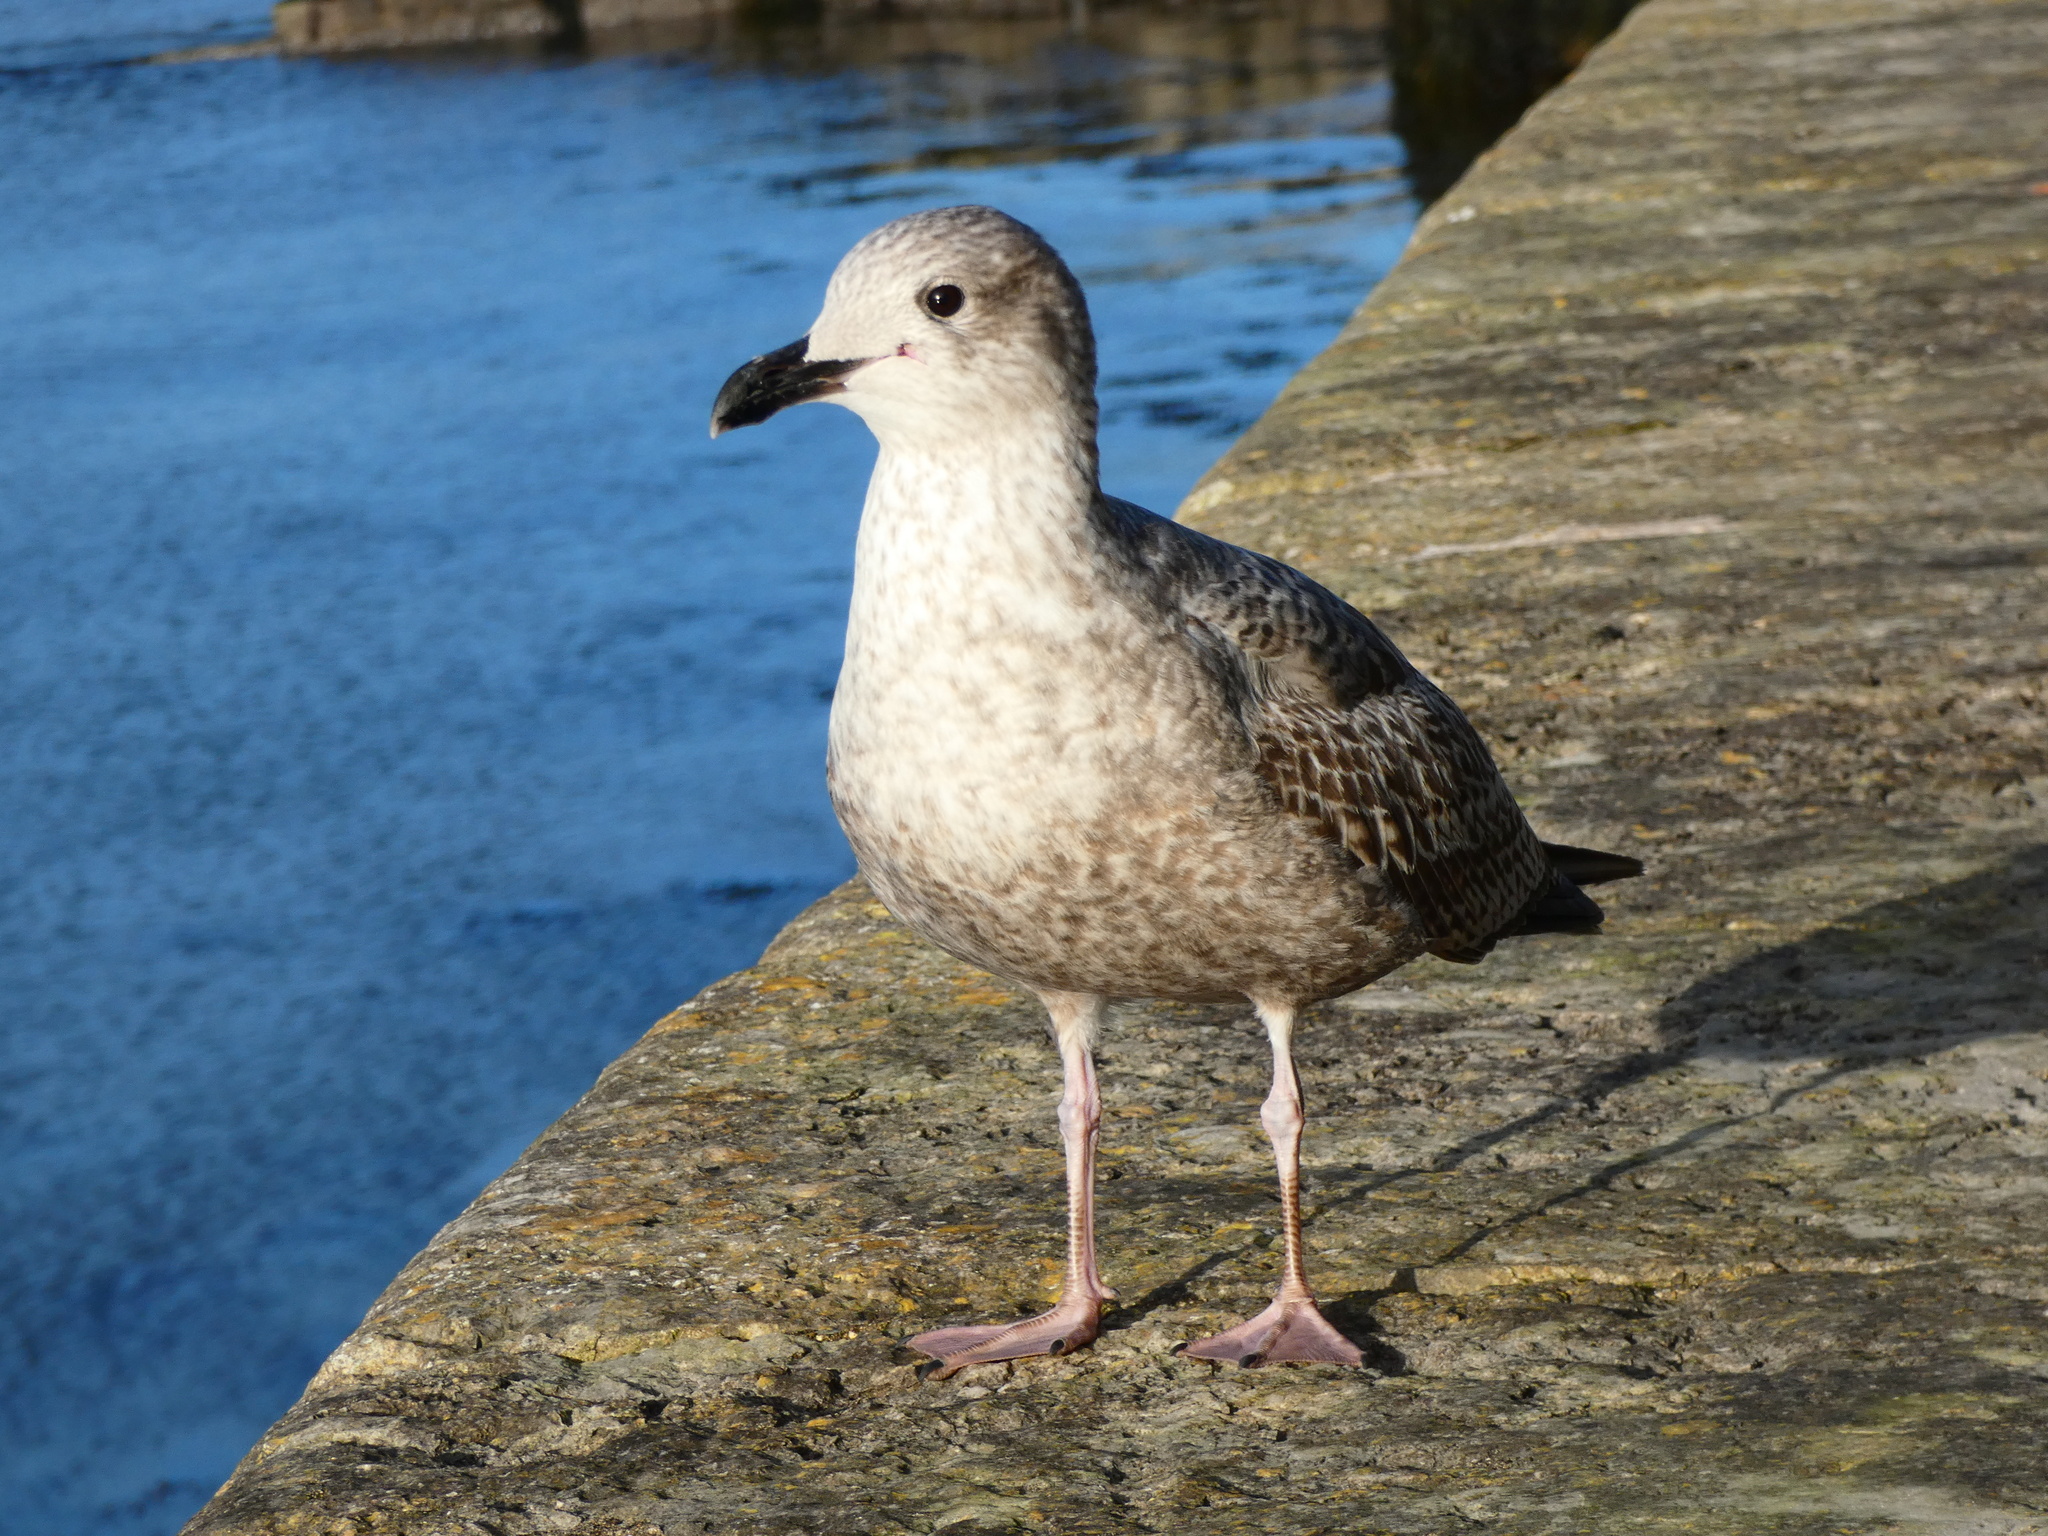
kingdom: Animalia
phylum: Chordata
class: Aves
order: Charadriiformes
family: Laridae
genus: Larus
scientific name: Larus argentatus
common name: Herring gull
